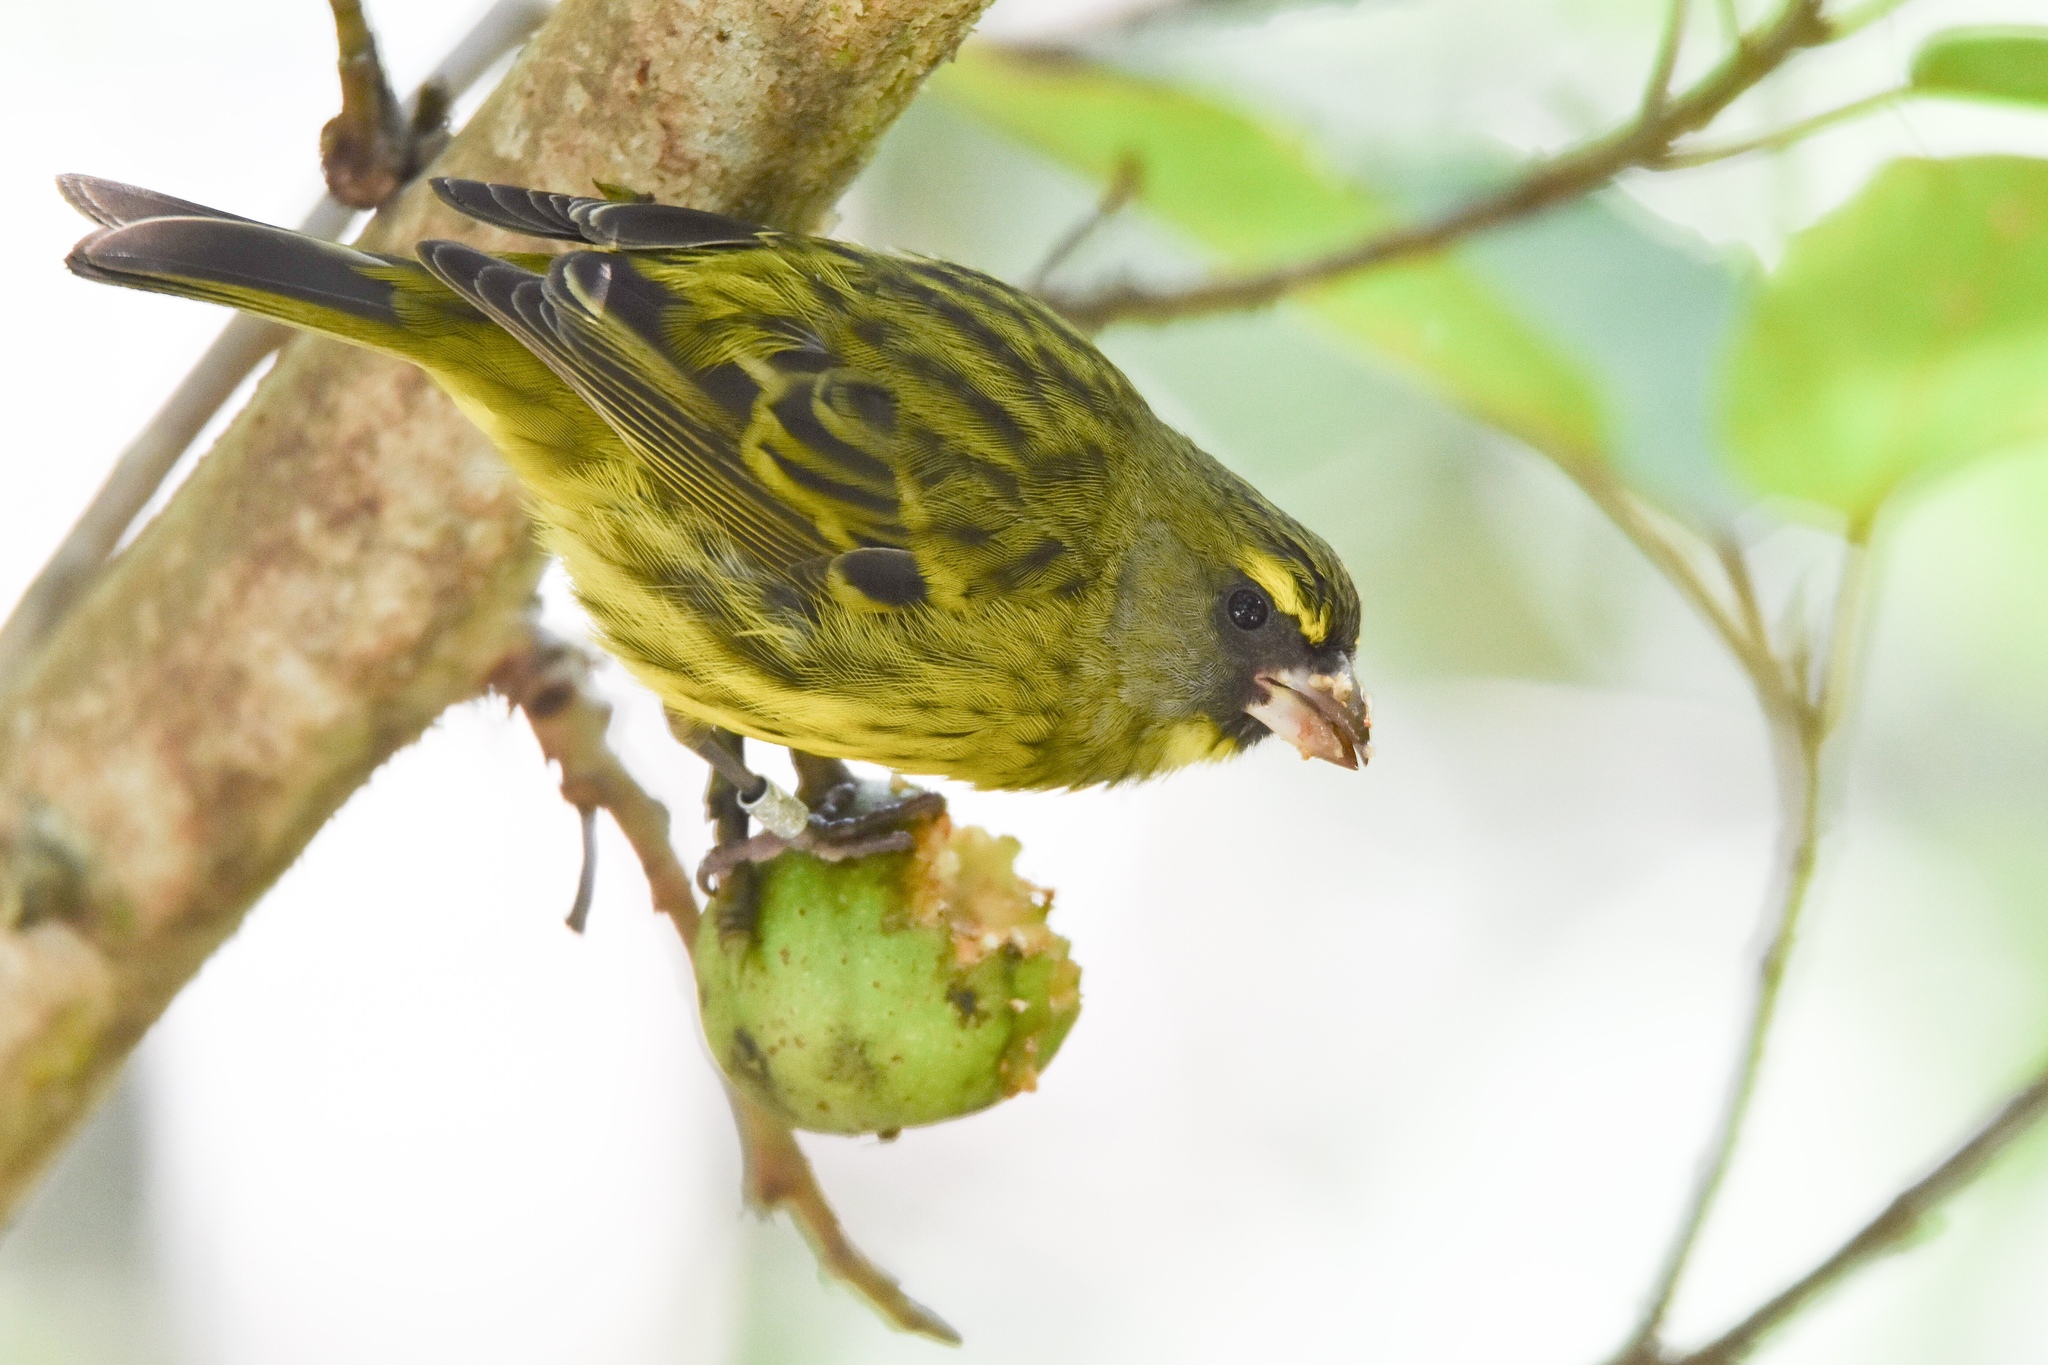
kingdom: Animalia
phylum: Chordata
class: Aves
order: Passeriformes
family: Fringillidae
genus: Crithagra
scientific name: Crithagra scotops
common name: Forest canary
